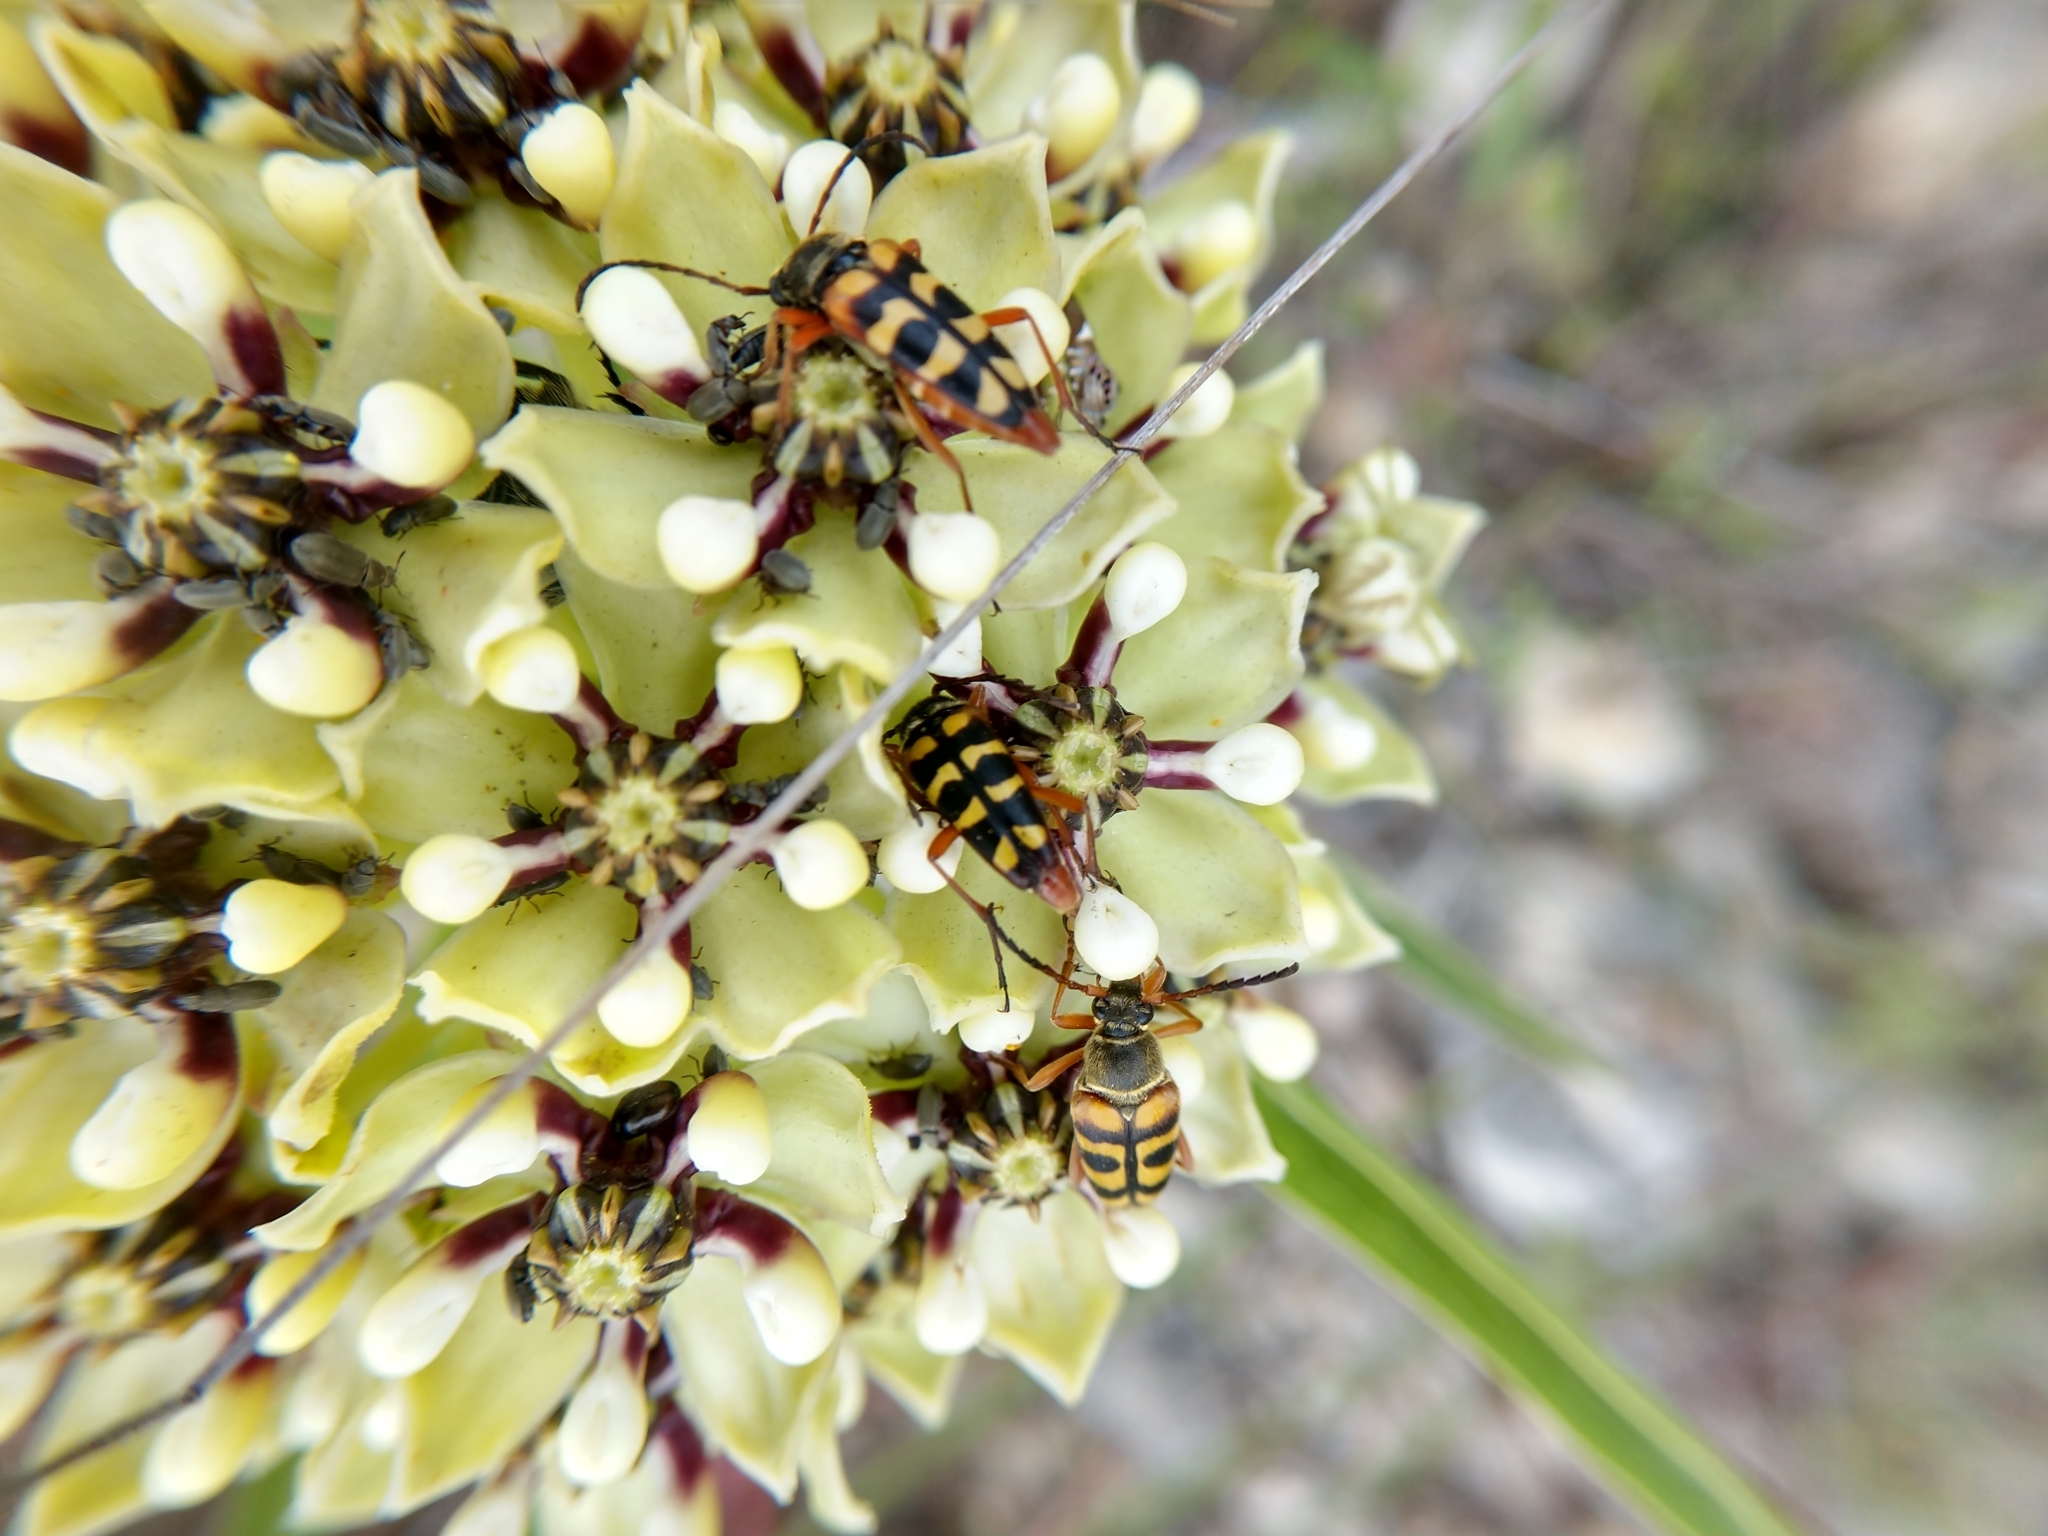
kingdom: Animalia
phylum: Arthropoda
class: Insecta
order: Coleoptera
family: Cerambycidae
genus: Typocerus
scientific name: Typocerus sinuatus
